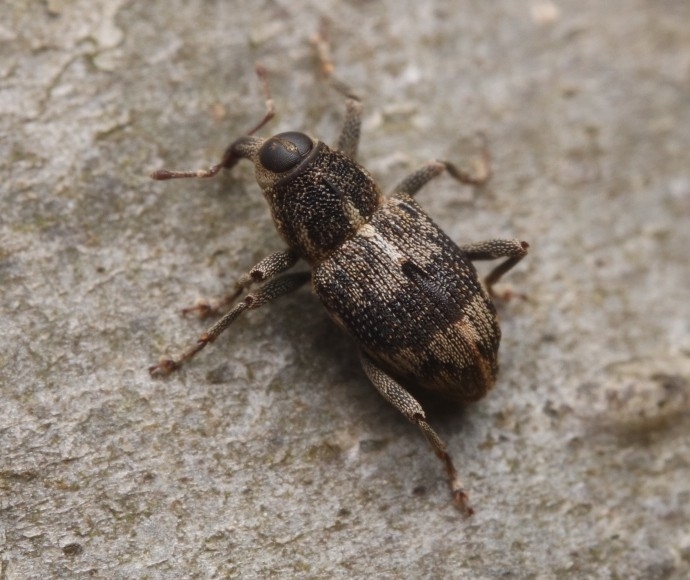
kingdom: Animalia
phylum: Arthropoda
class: Insecta
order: Coleoptera
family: Curculionidae
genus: Acoptus
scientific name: Acoptus suturalis
